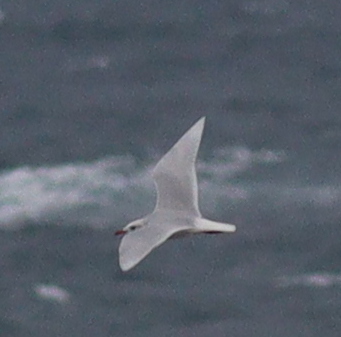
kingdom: Animalia
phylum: Chordata
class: Aves
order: Charadriiformes
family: Laridae
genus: Ichthyaetus
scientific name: Ichthyaetus melanocephalus
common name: Mediterranean gull
